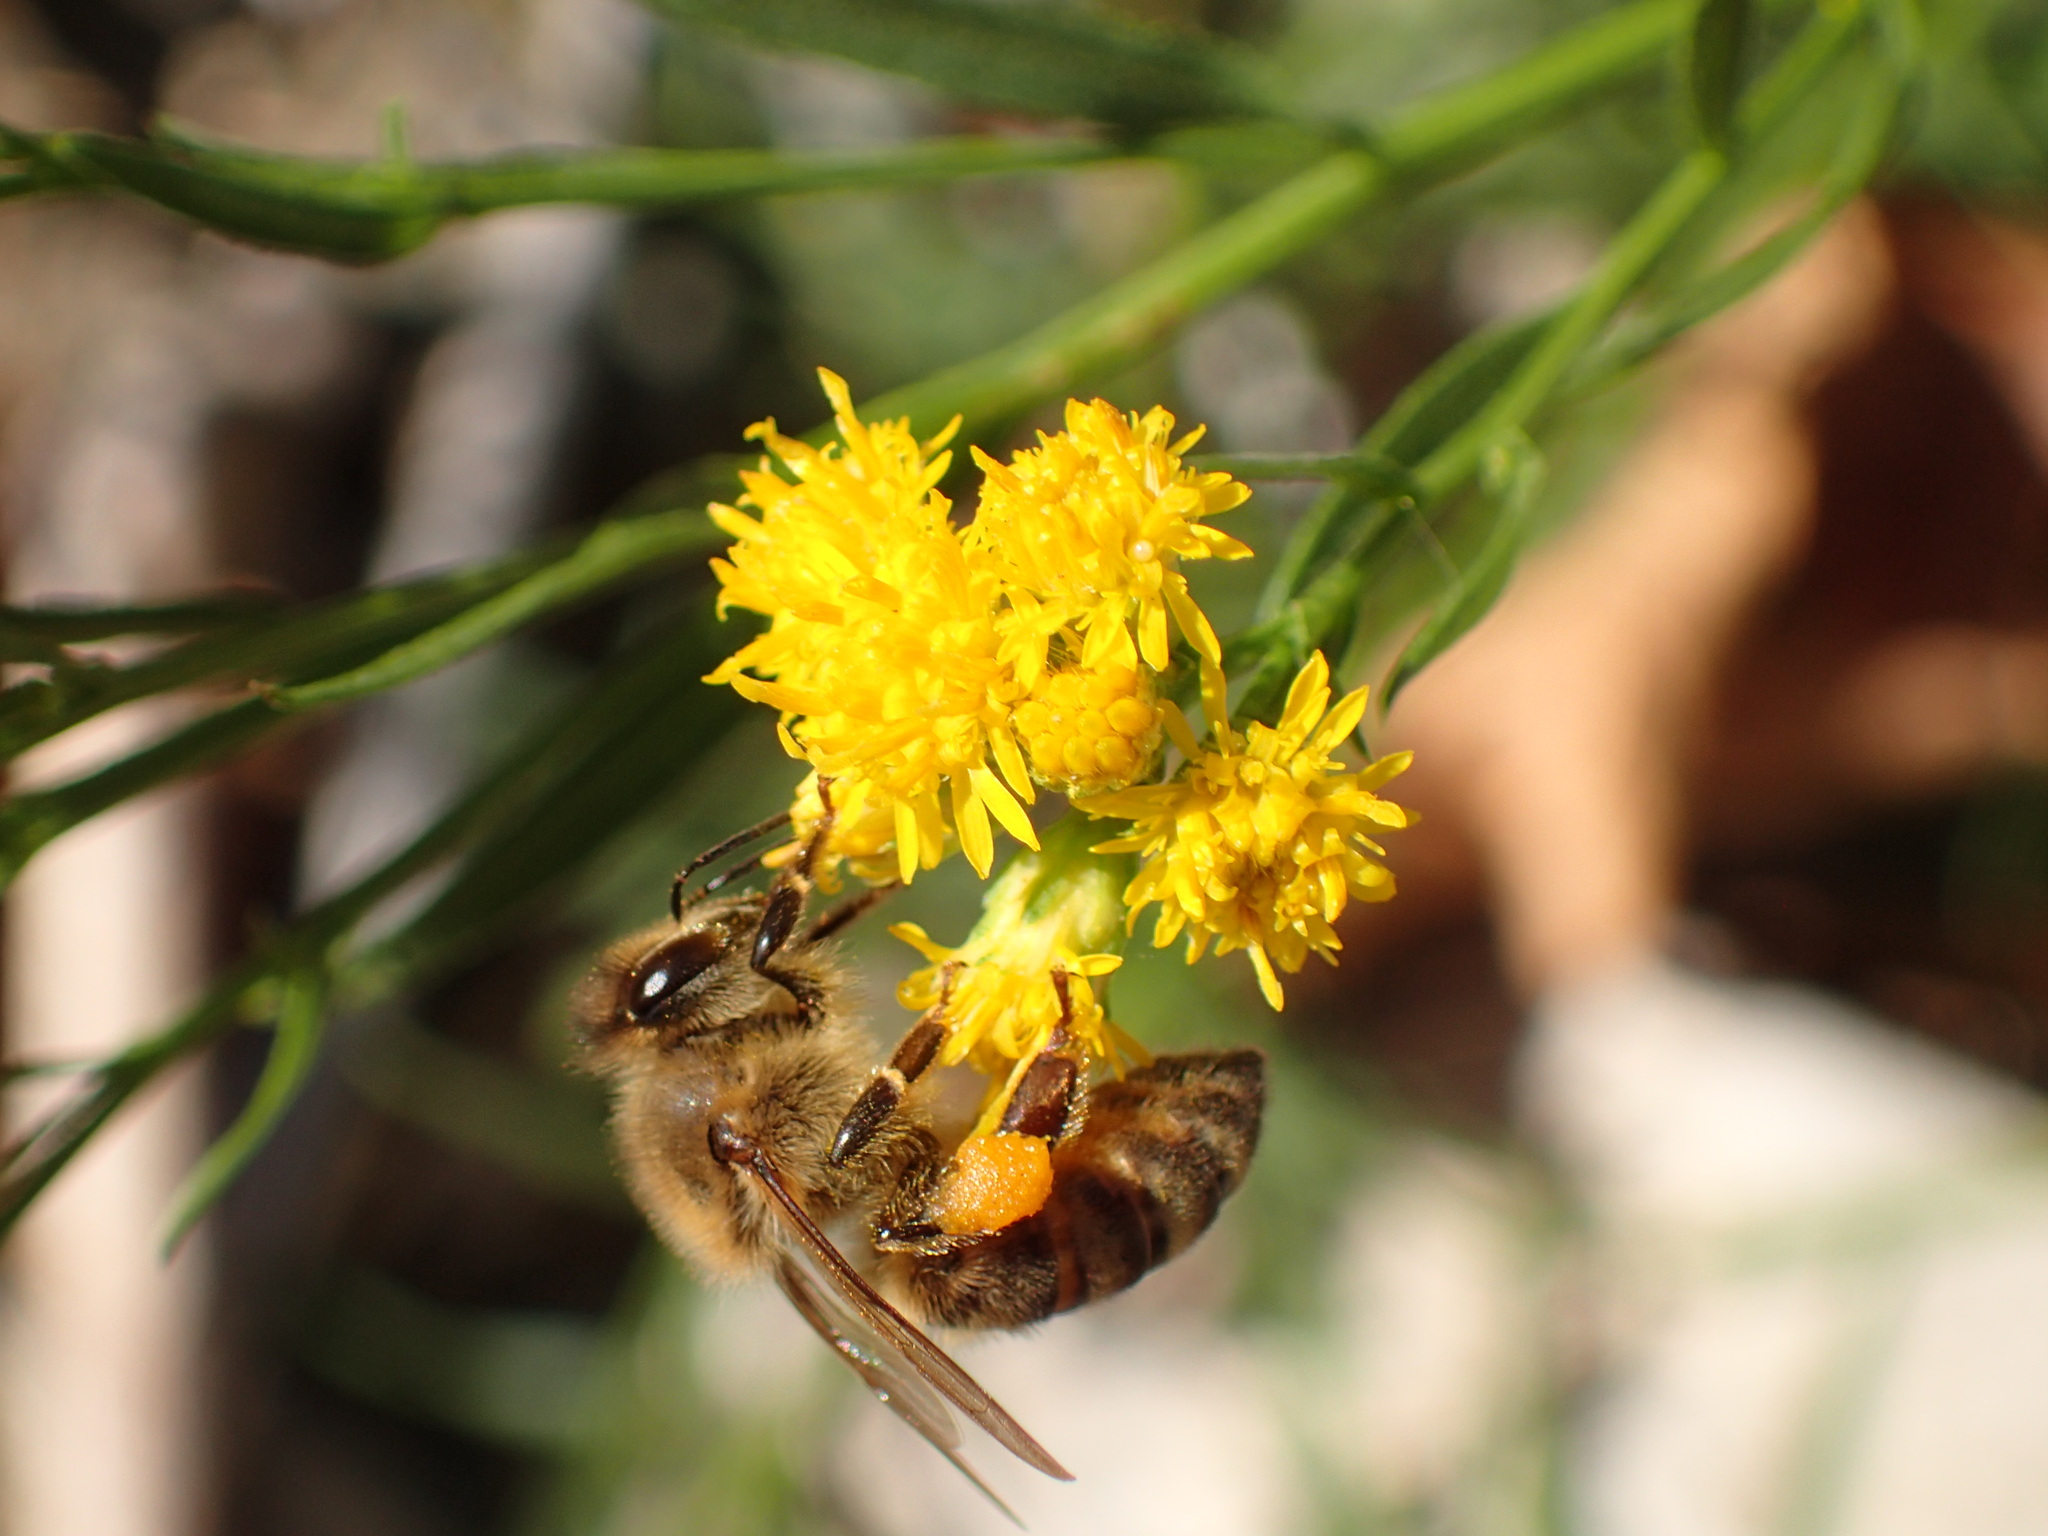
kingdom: Animalia
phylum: Arthropoda
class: Insecta
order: Hymenoptera
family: Apidae
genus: Apis
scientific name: Apis mellifera
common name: Honey bee
